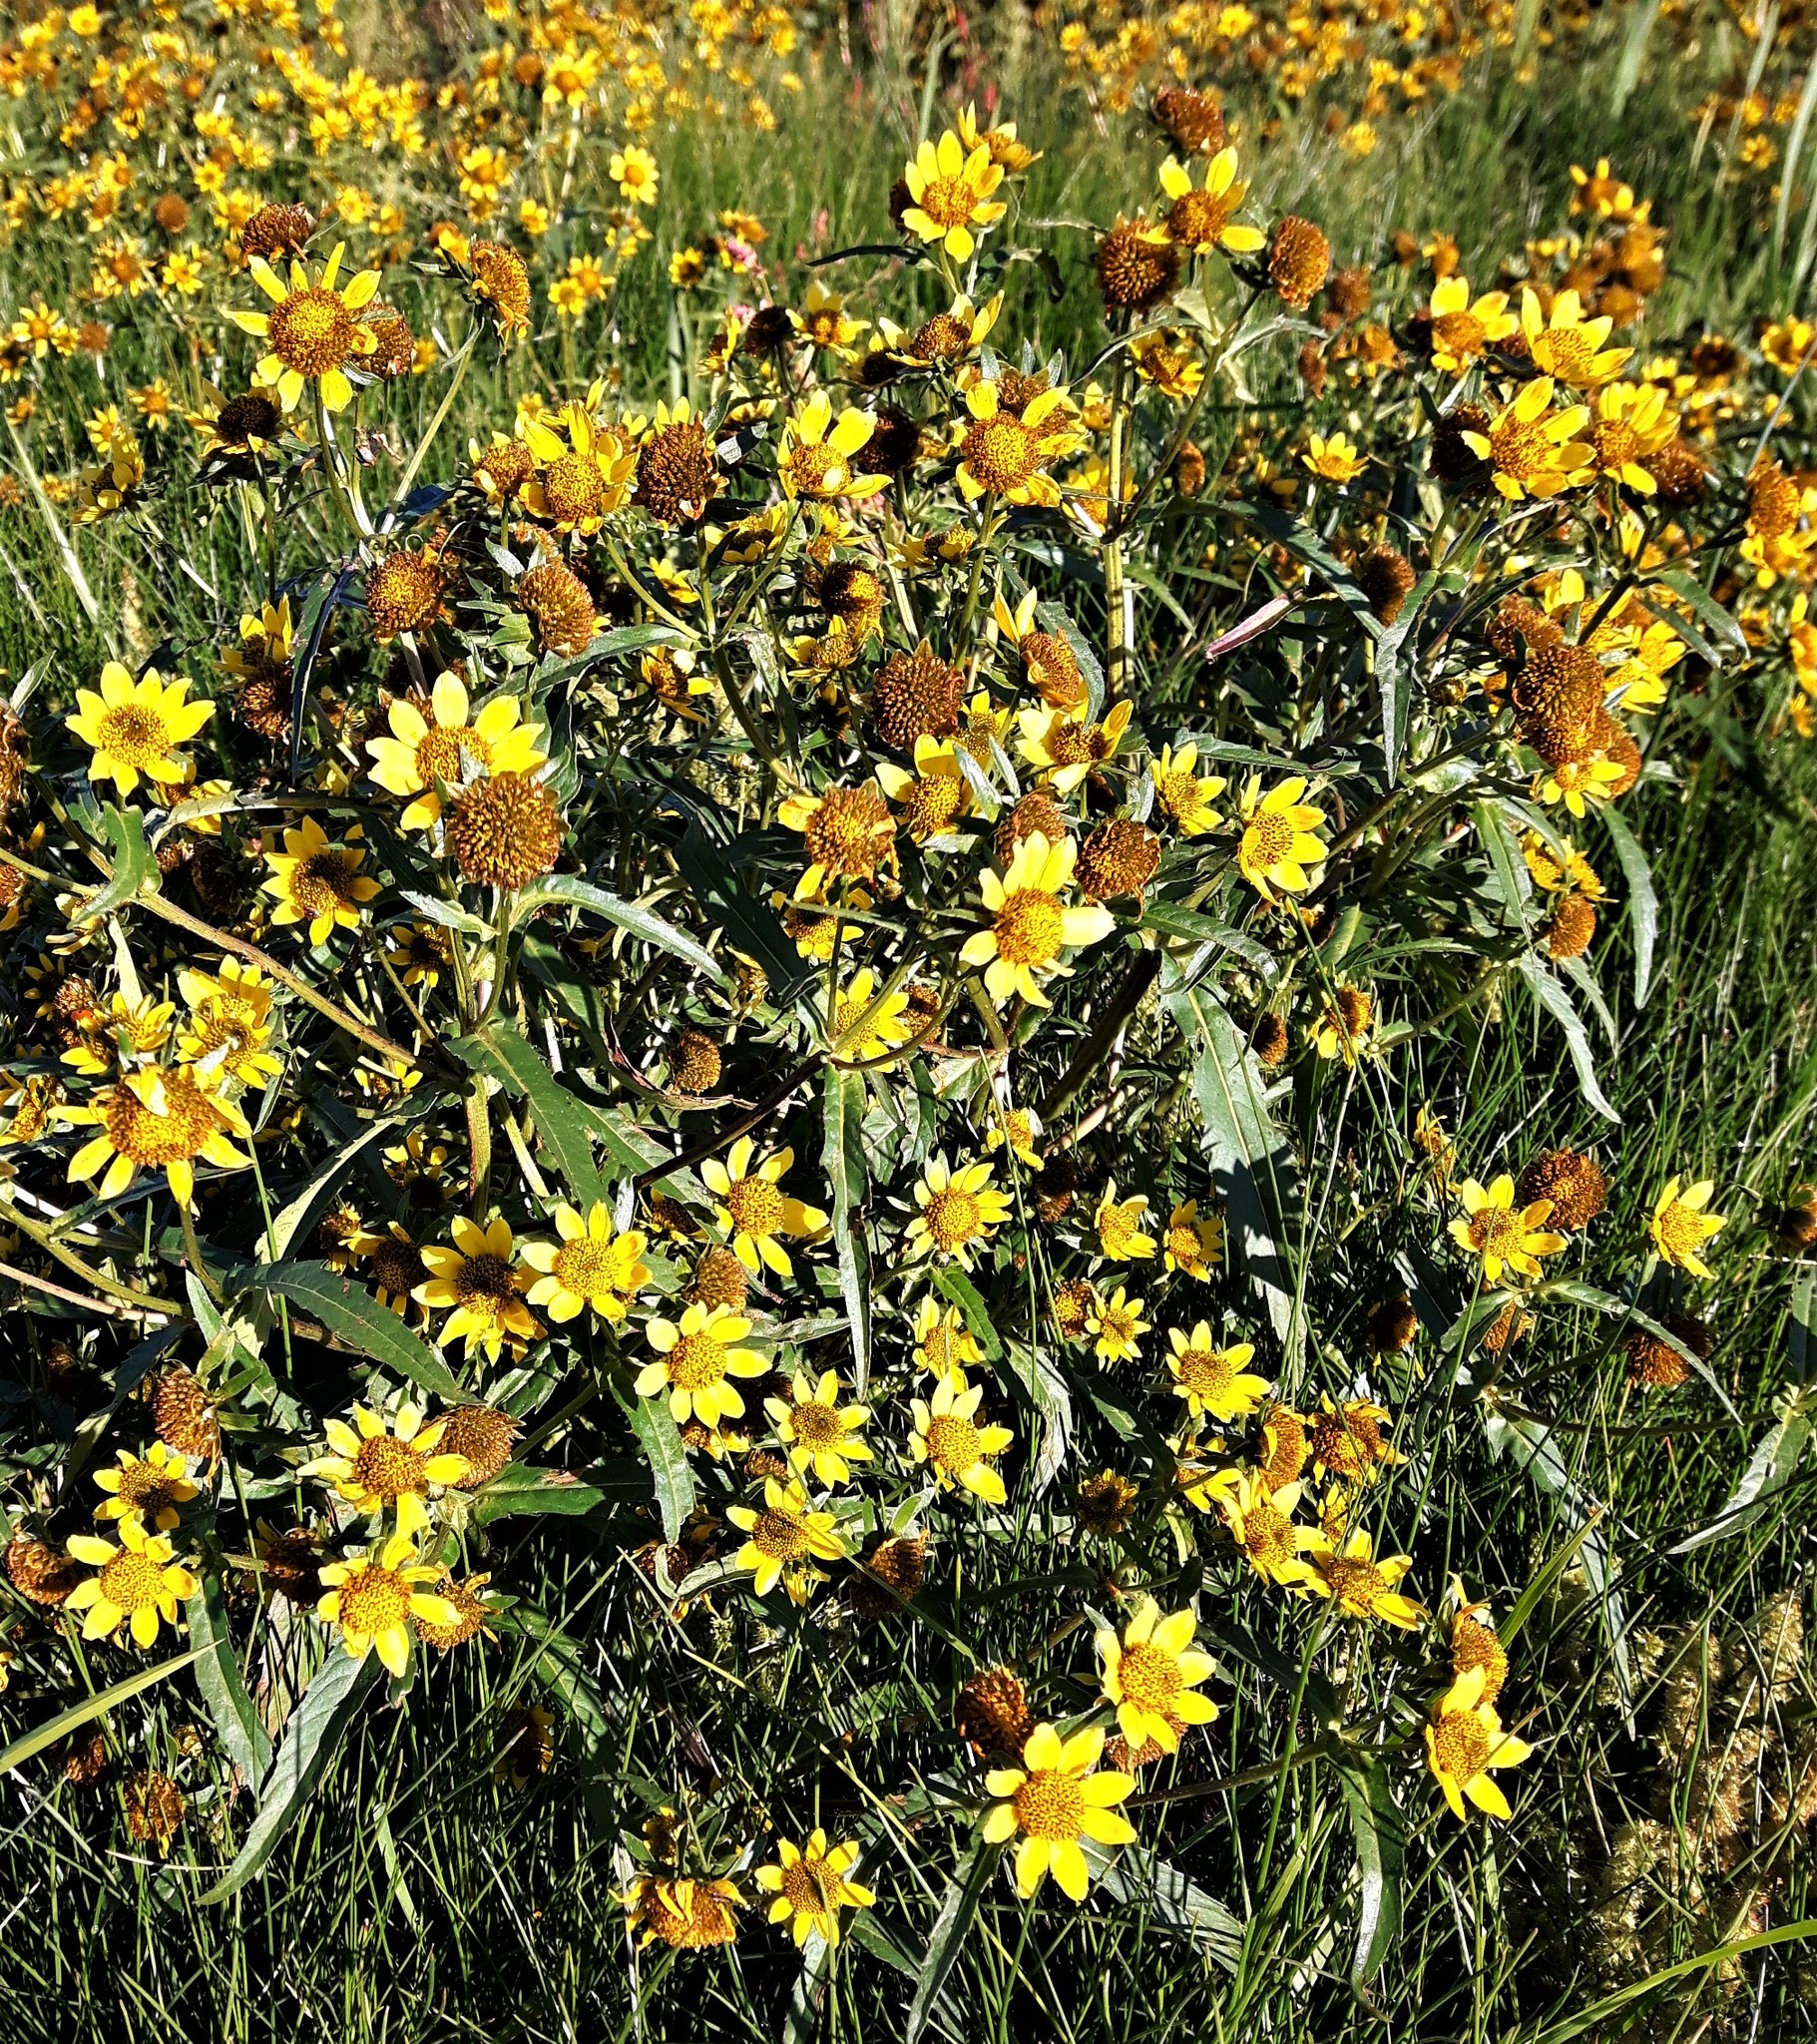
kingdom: Plantae
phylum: Tracheophyta
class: Magnoliopsida
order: Asterales
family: Asteraceae
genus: Bidens
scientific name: Bidens cernua
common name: Nodding bur-marigold
